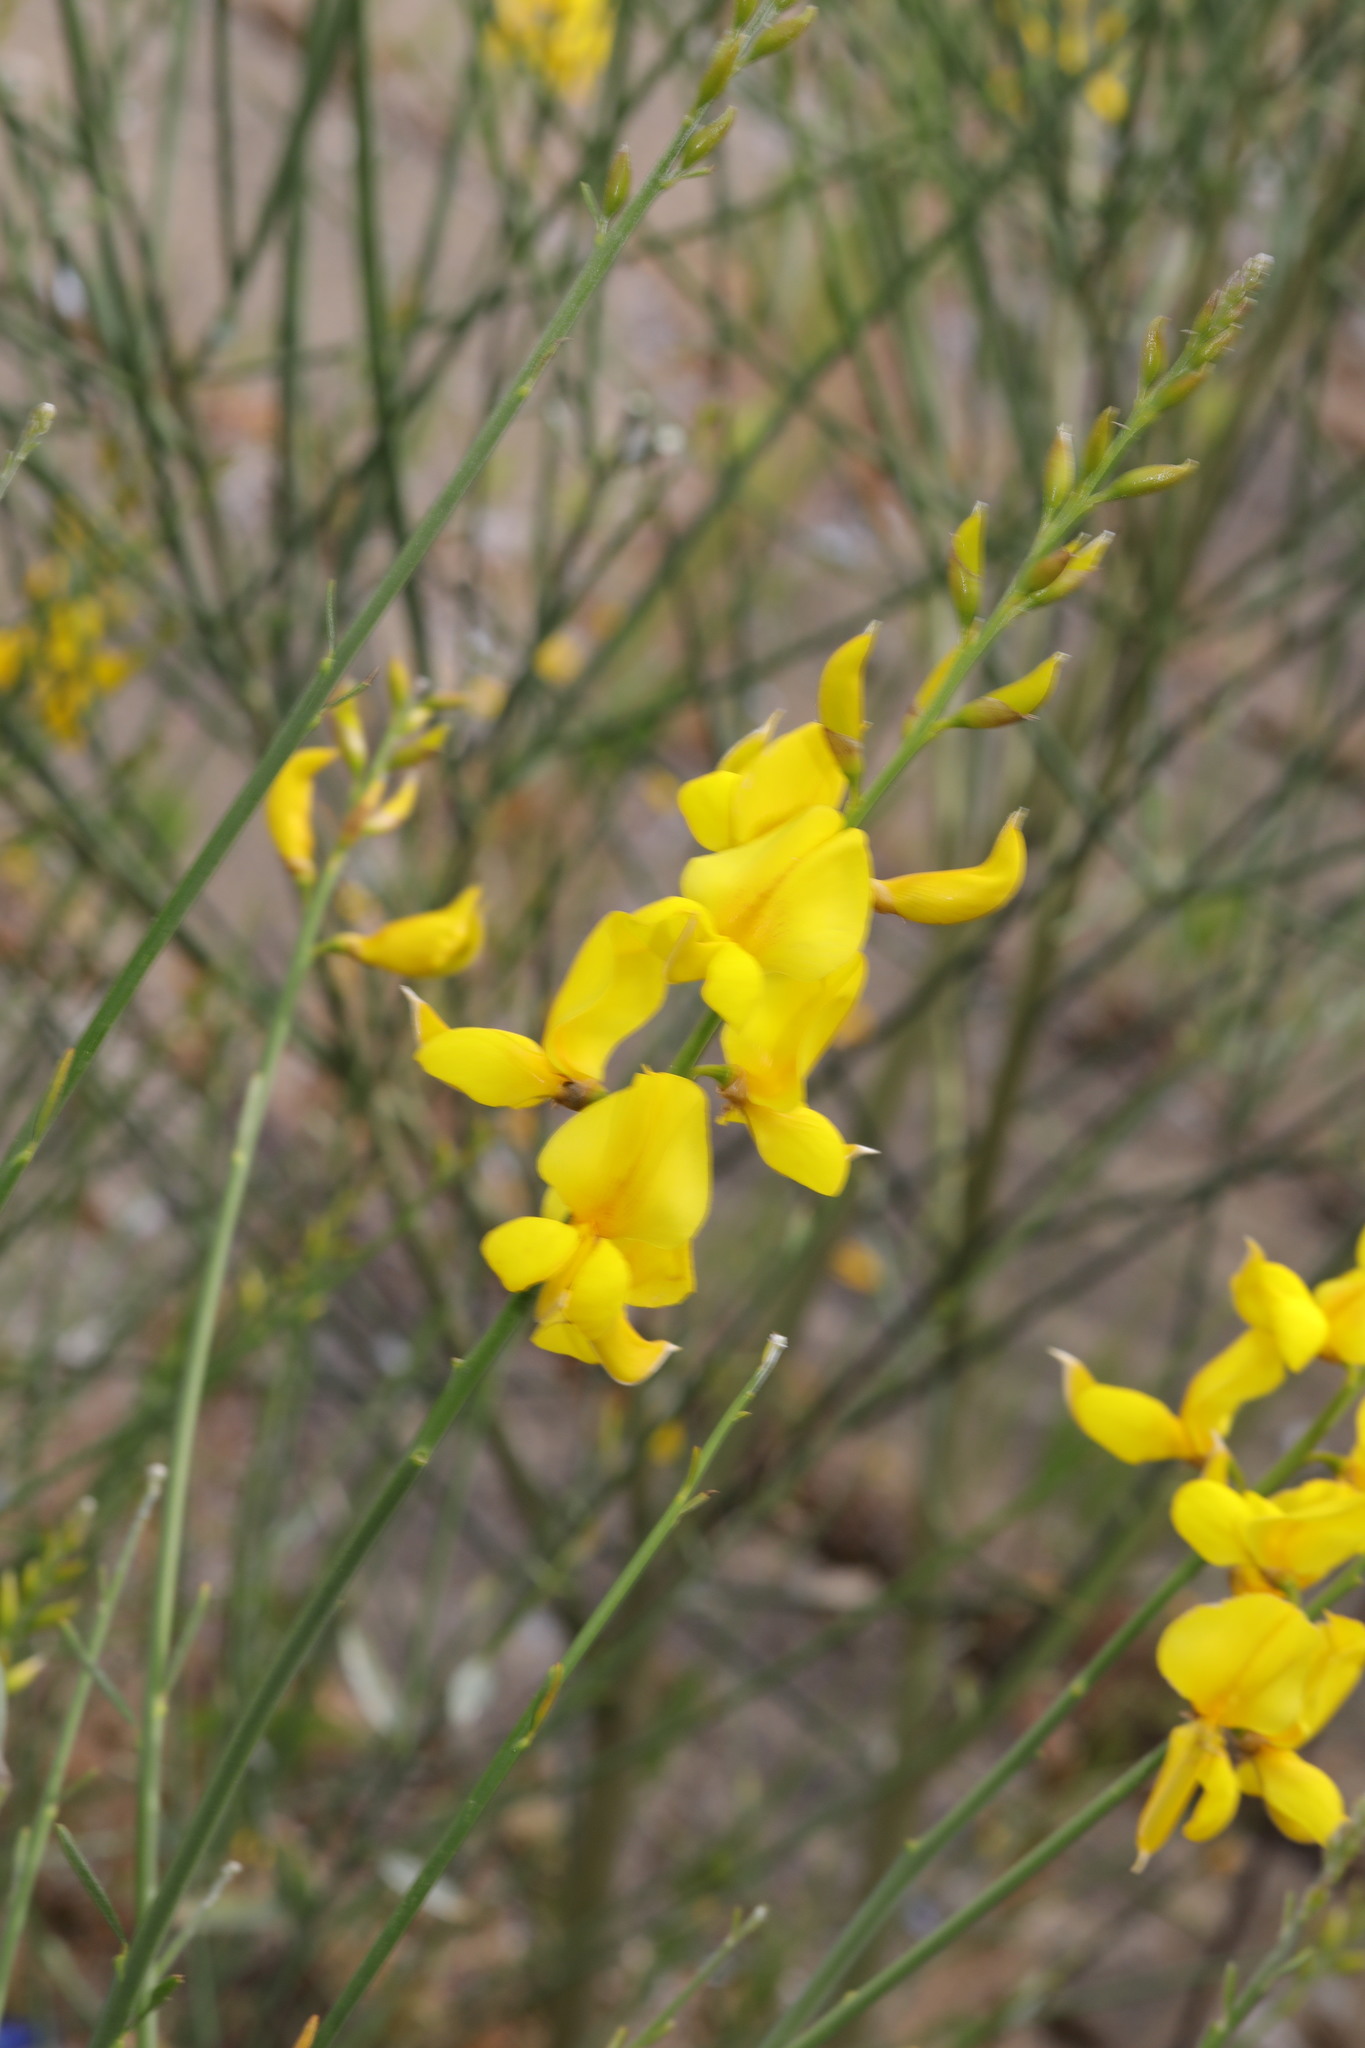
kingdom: Plantae
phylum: Tracheophyta
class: Magnoliopsida
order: Fabales
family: Fabaceae
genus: Spartium
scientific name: Spartium junceum
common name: Spanish broom
